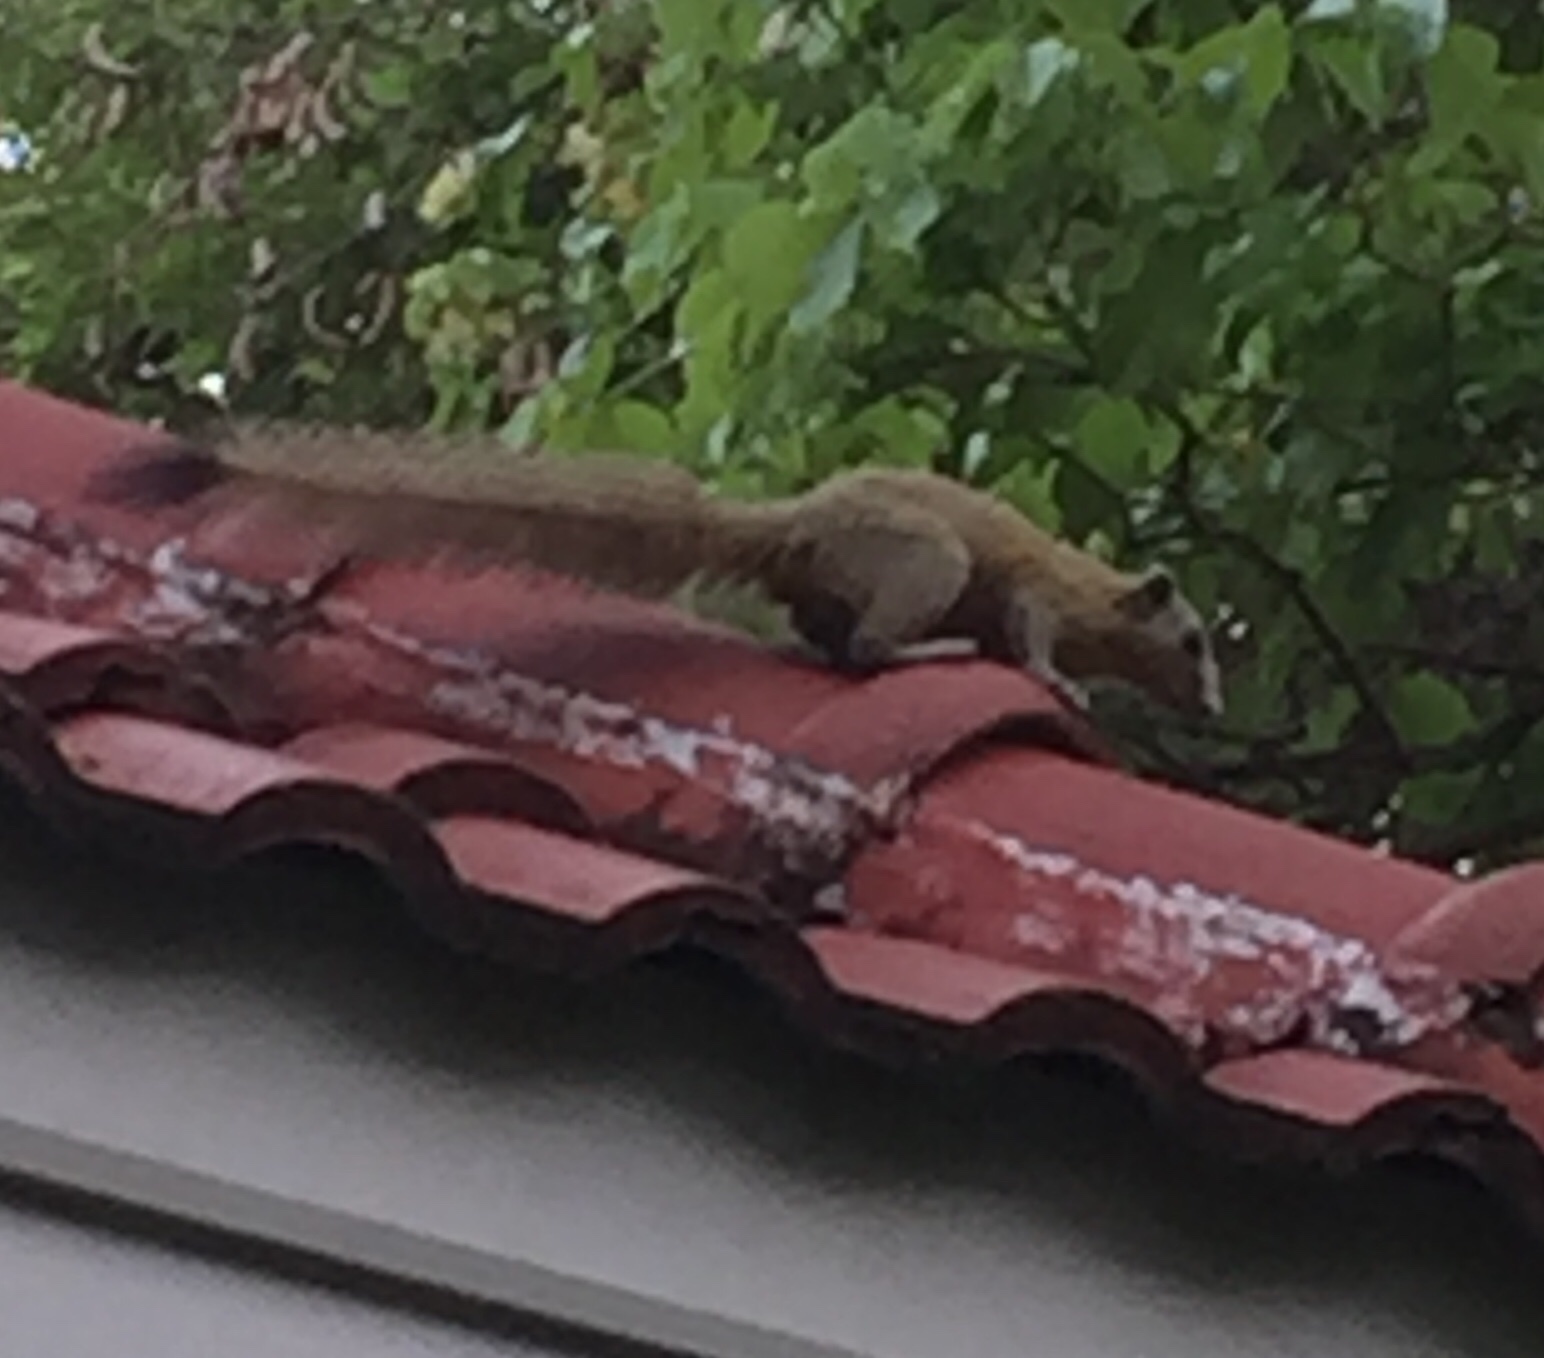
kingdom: Animalia
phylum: Chordata
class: Mammalia
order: Rodentia
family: Sciuridae
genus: Callosciurus
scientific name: Callosciurus caniceps
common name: Gray-bellied squirrel
